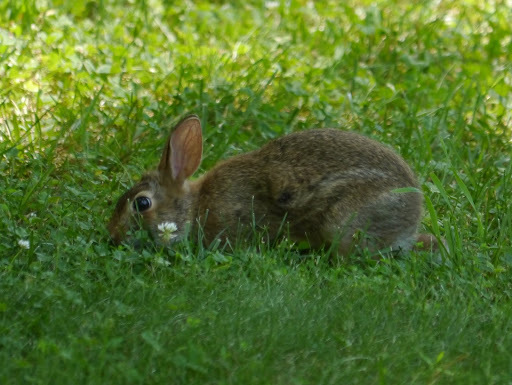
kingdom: Animalia
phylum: Chordata
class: Mammalia
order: Lagomorpha
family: Leporidae
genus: Sylvilagus
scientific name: Sylvilagus floridanus
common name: Eastern cottontail
